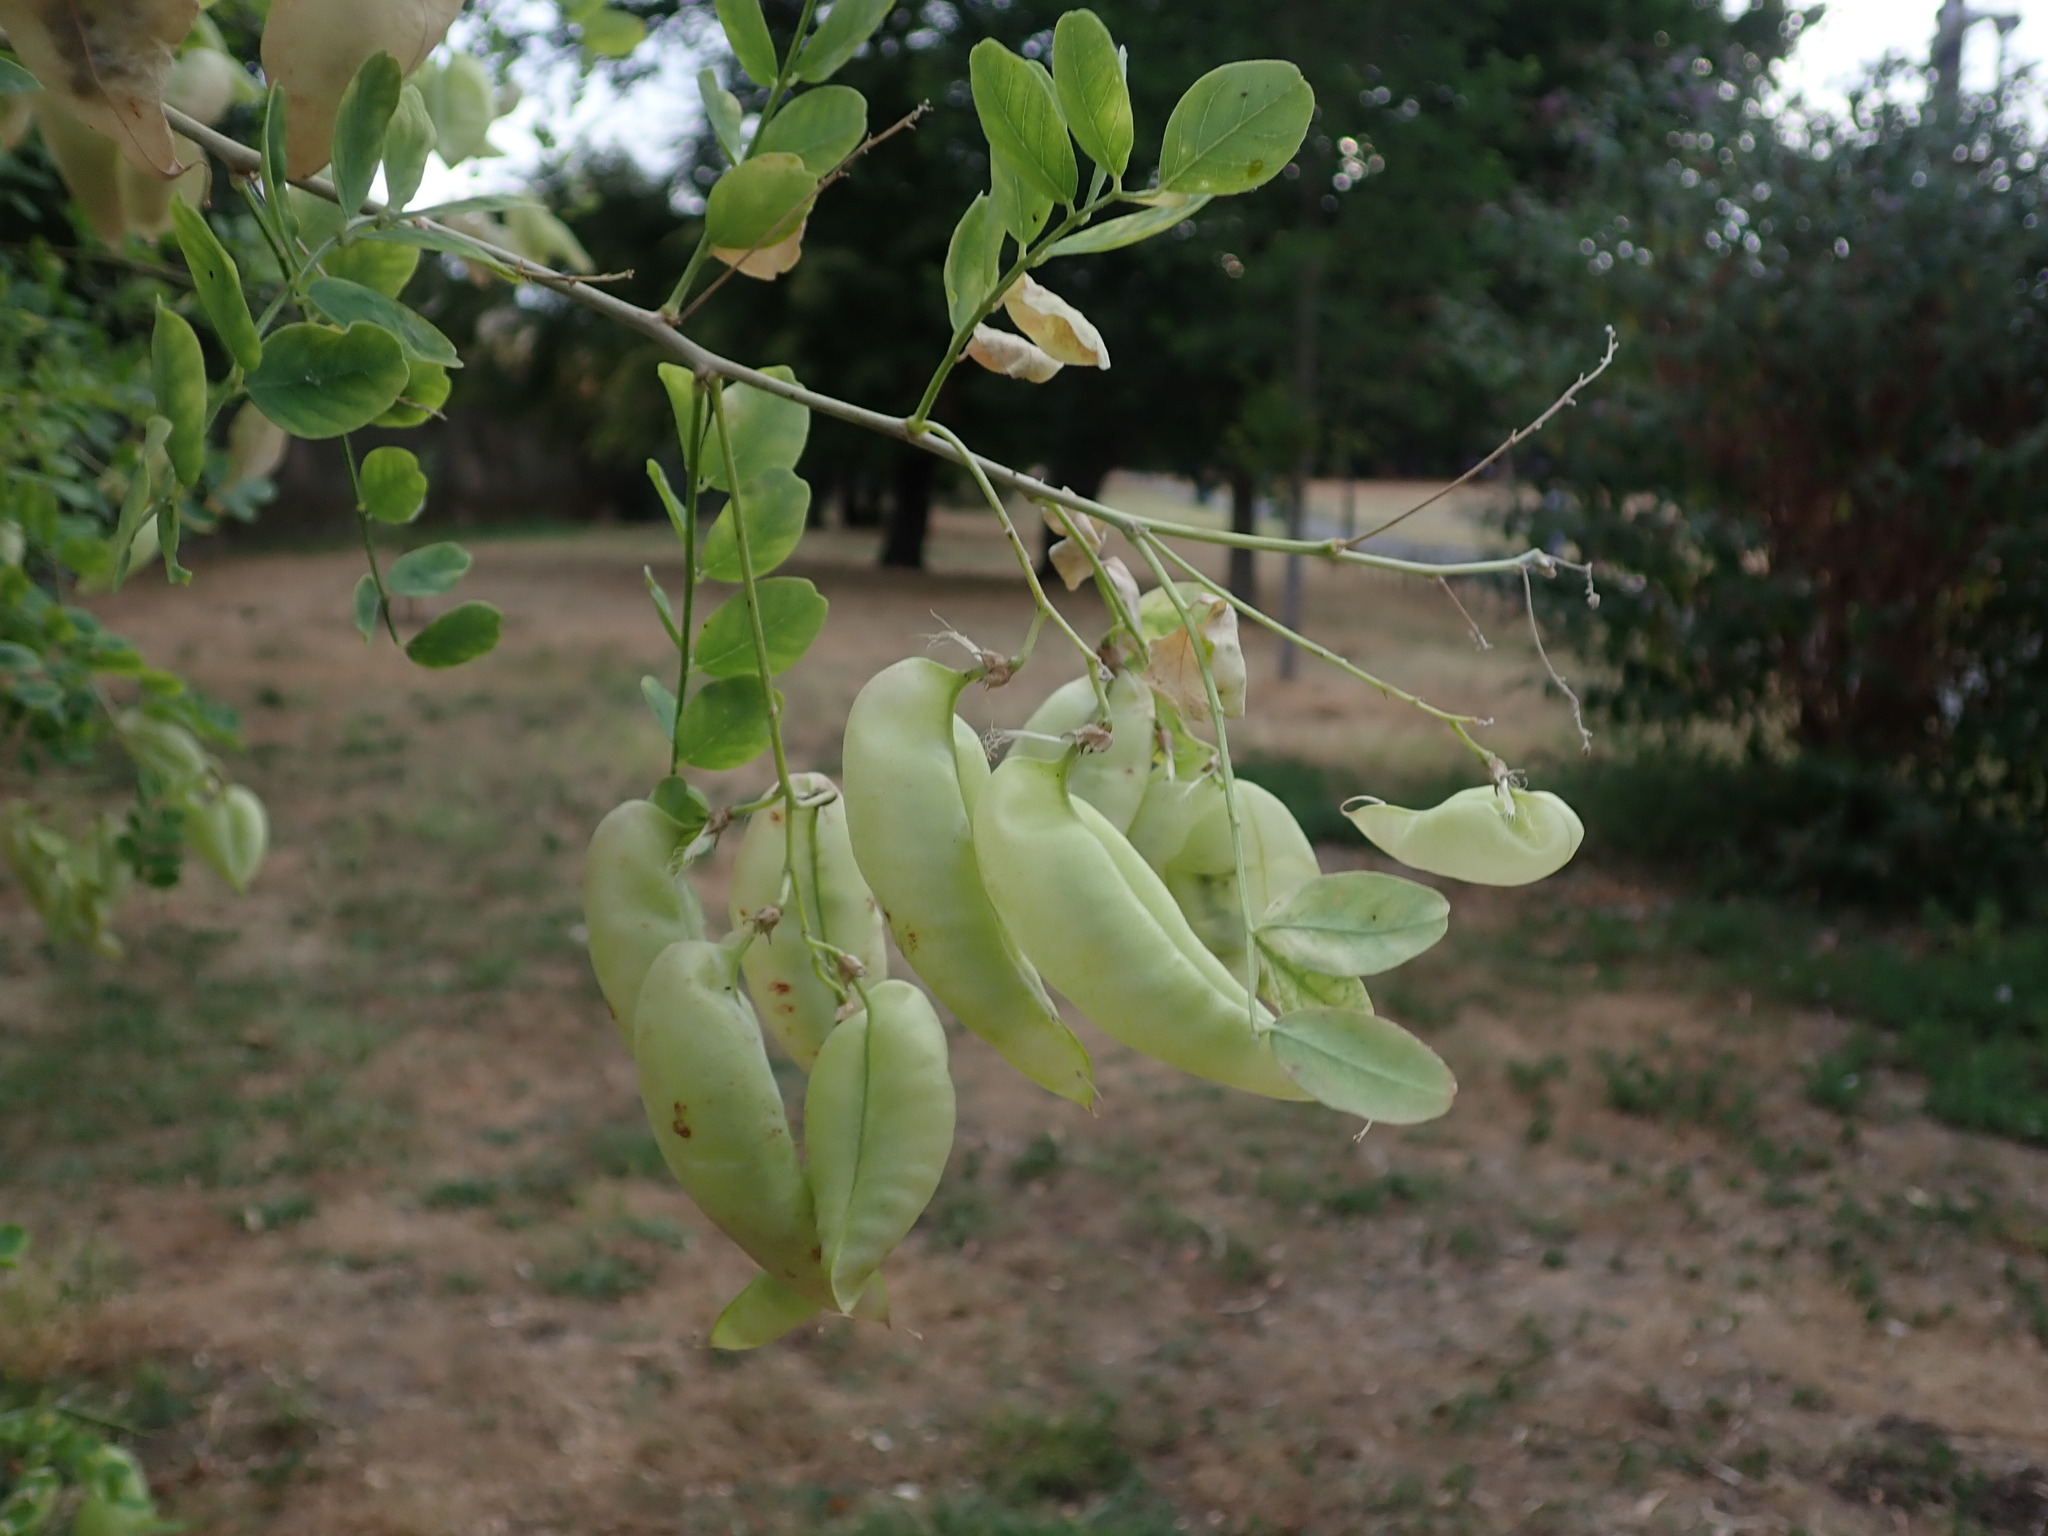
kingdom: Plantae
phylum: Tracheophyta
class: Magnoliopsida
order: Fabales
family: Fabaceae
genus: Colutea
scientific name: Colutea arborescens
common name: Bladder-senna
